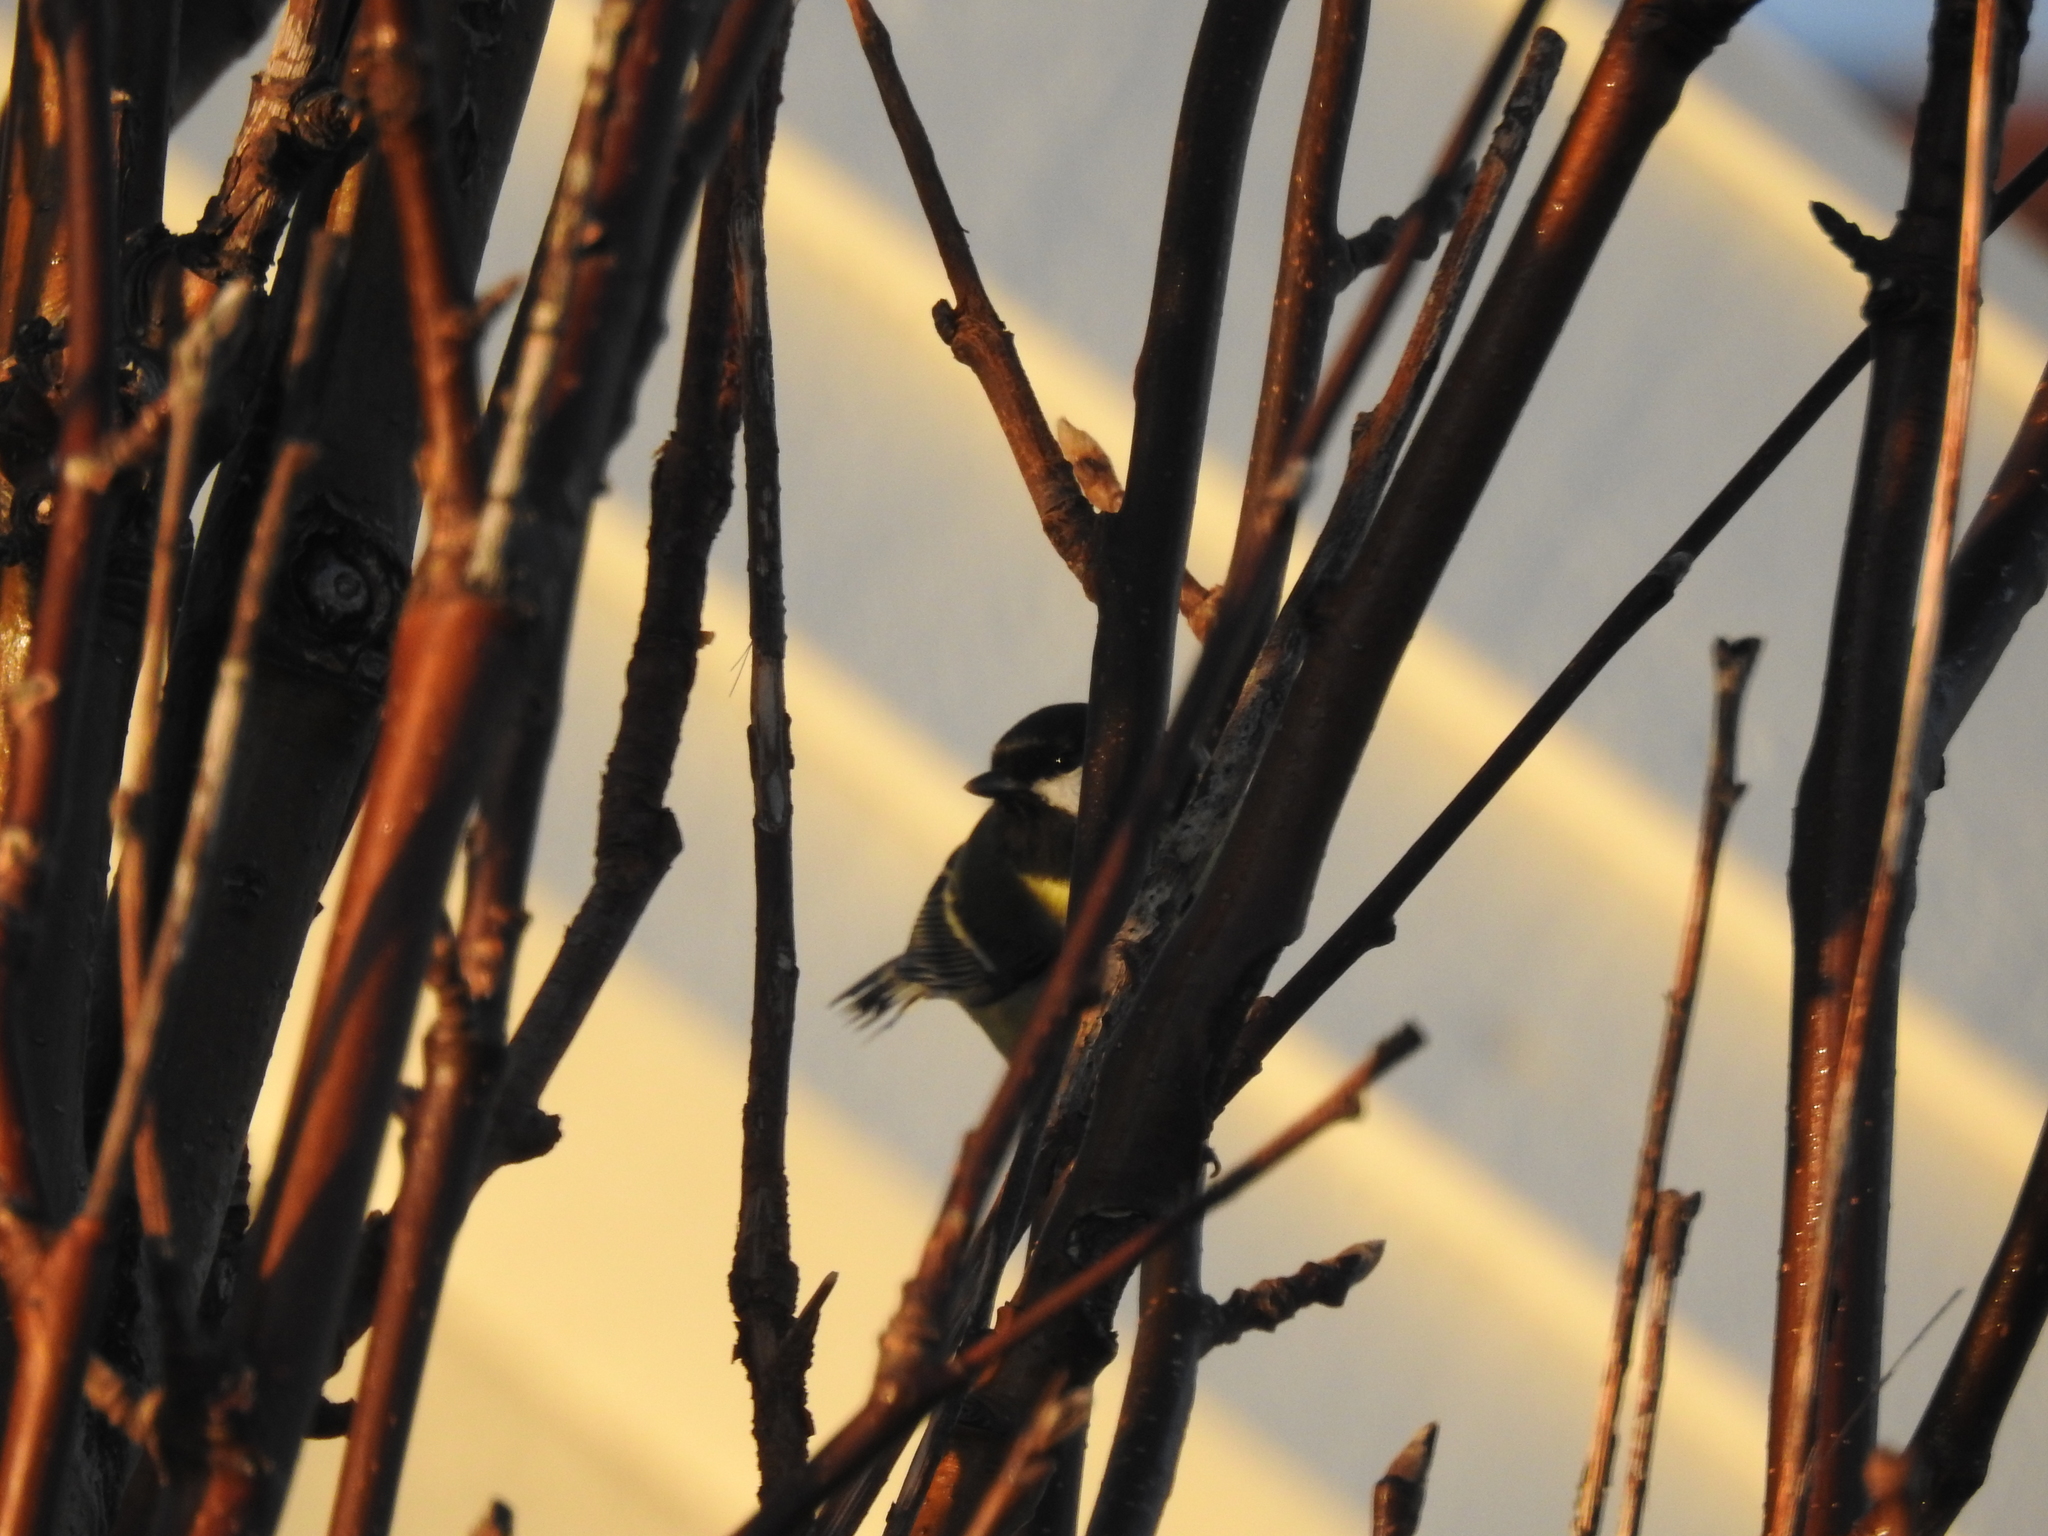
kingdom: Animalia
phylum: Chordata
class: Aves
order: Passeriformes
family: Paridae
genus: Parus
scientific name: Parus major
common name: Great tit
